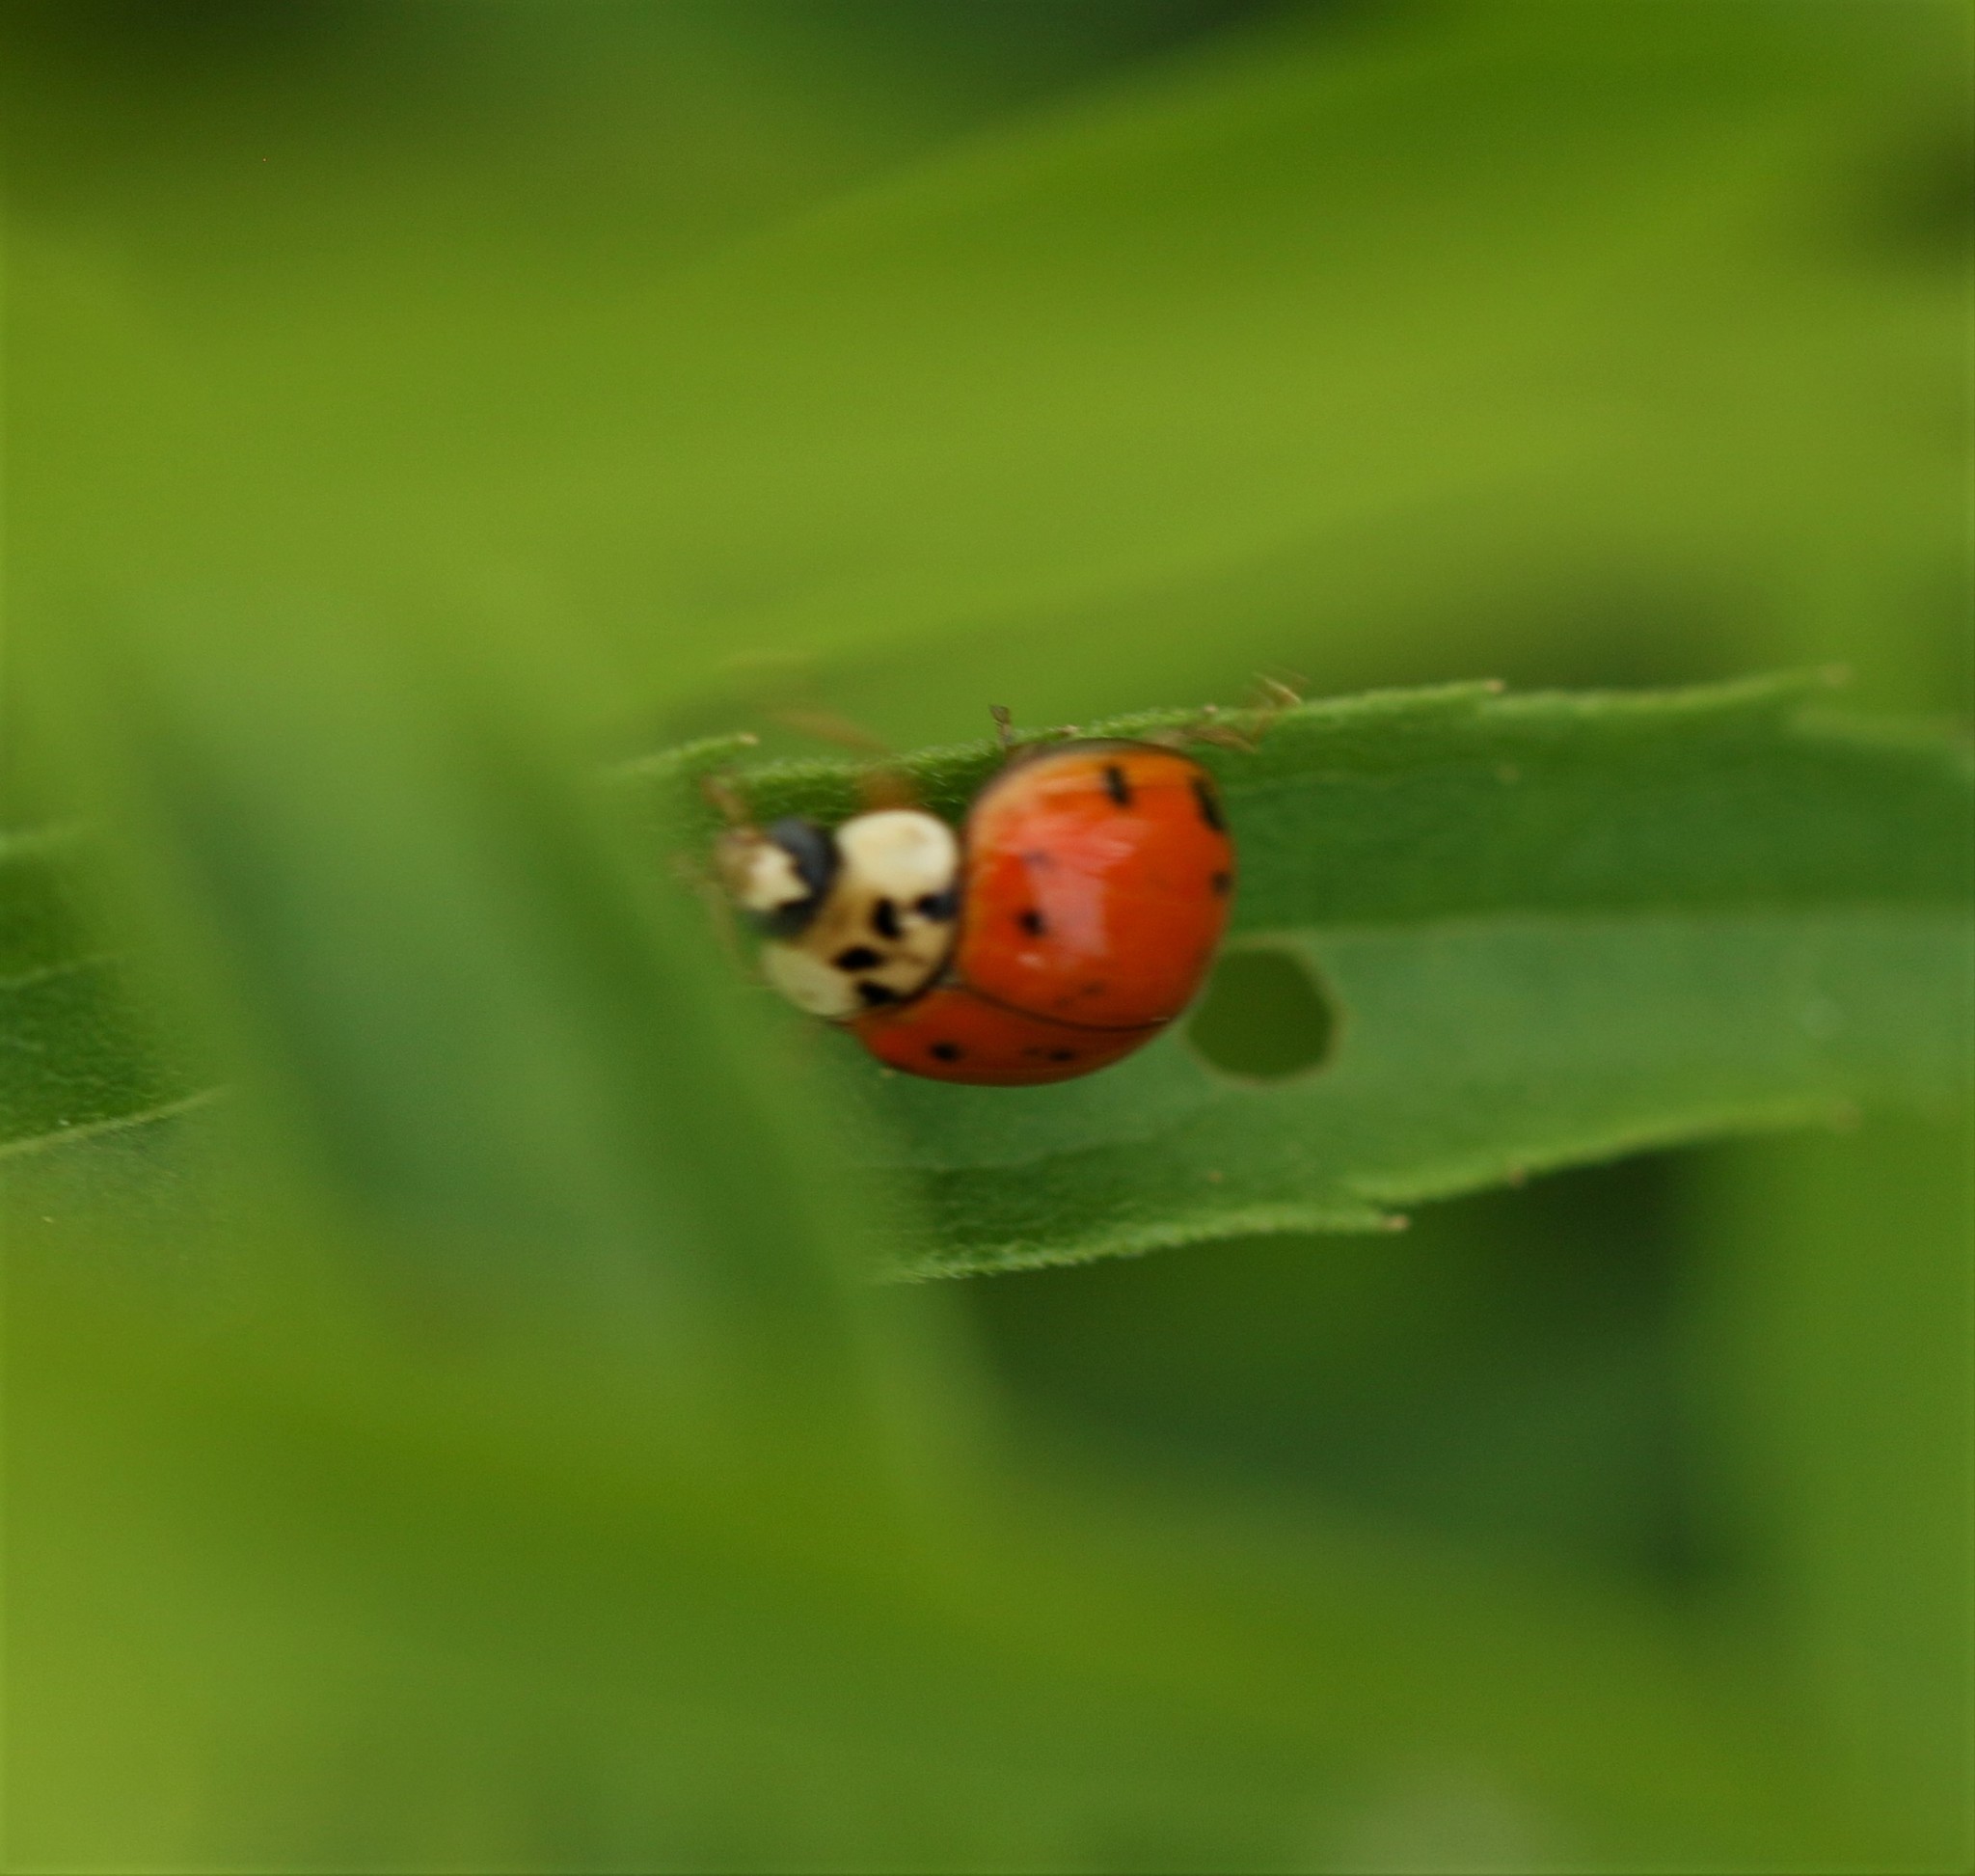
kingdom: Animalia
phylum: Arthropoda
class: Insecta
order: Coleoptera
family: Coccinellidae
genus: Harmonia
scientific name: Harmonia axyridis
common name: Harlequin ladybird
